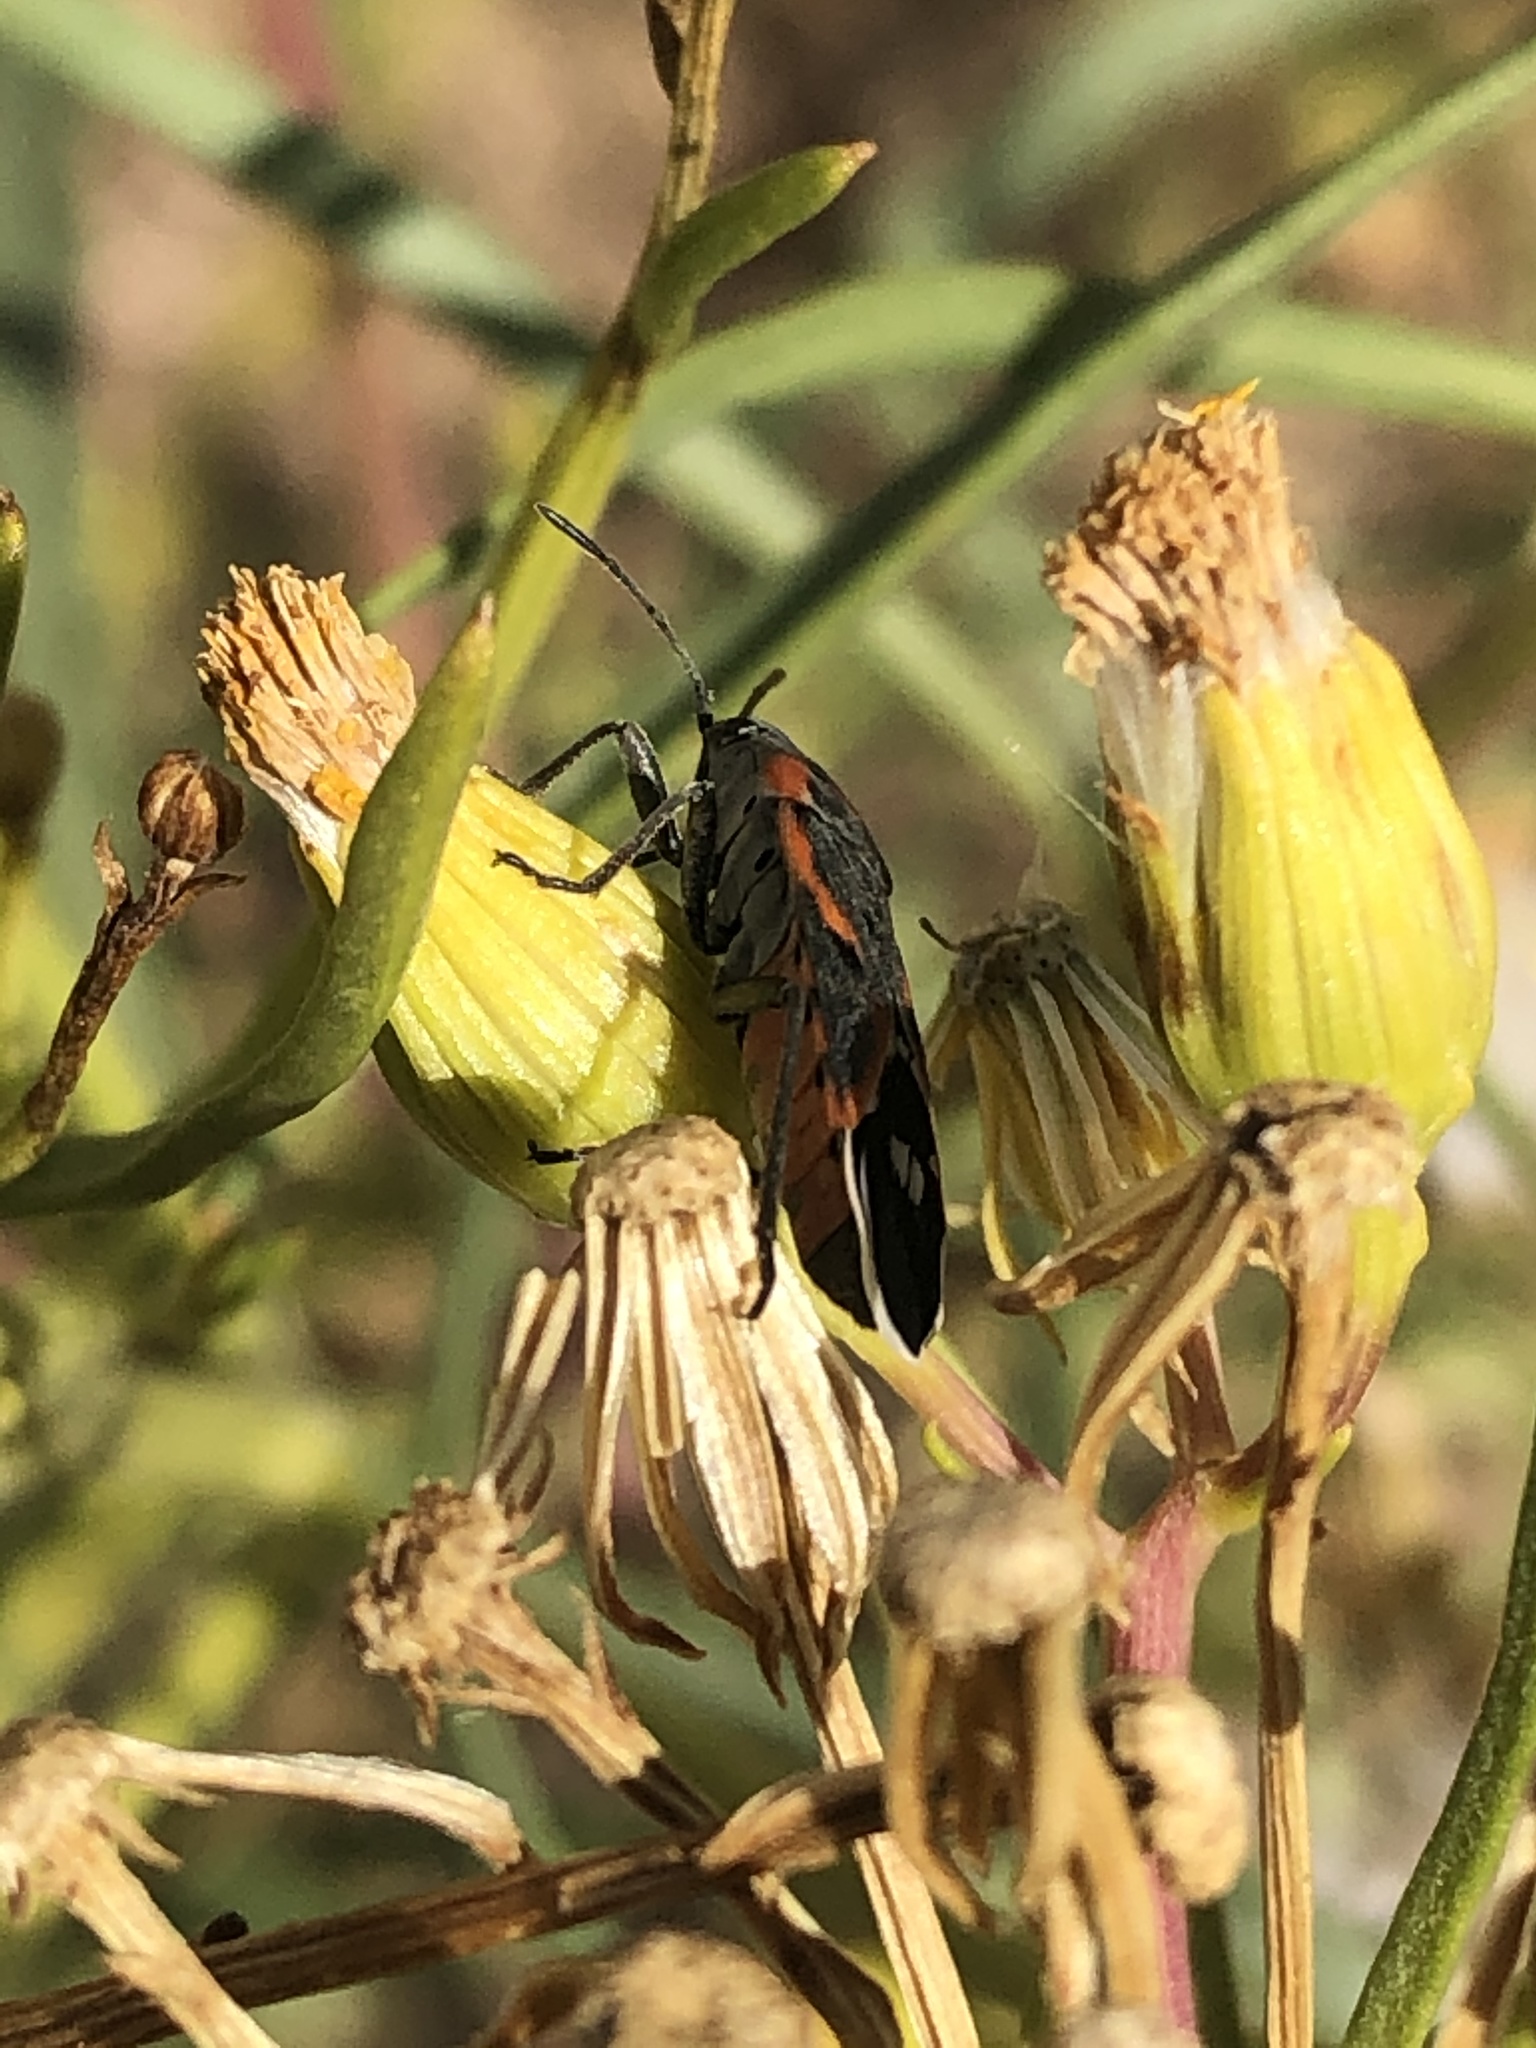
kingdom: Animalia
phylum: Arthropoda
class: Insecta
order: Hemiptera
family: Lygaeidae
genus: Lygaeus
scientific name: Lygaeus kalmii
